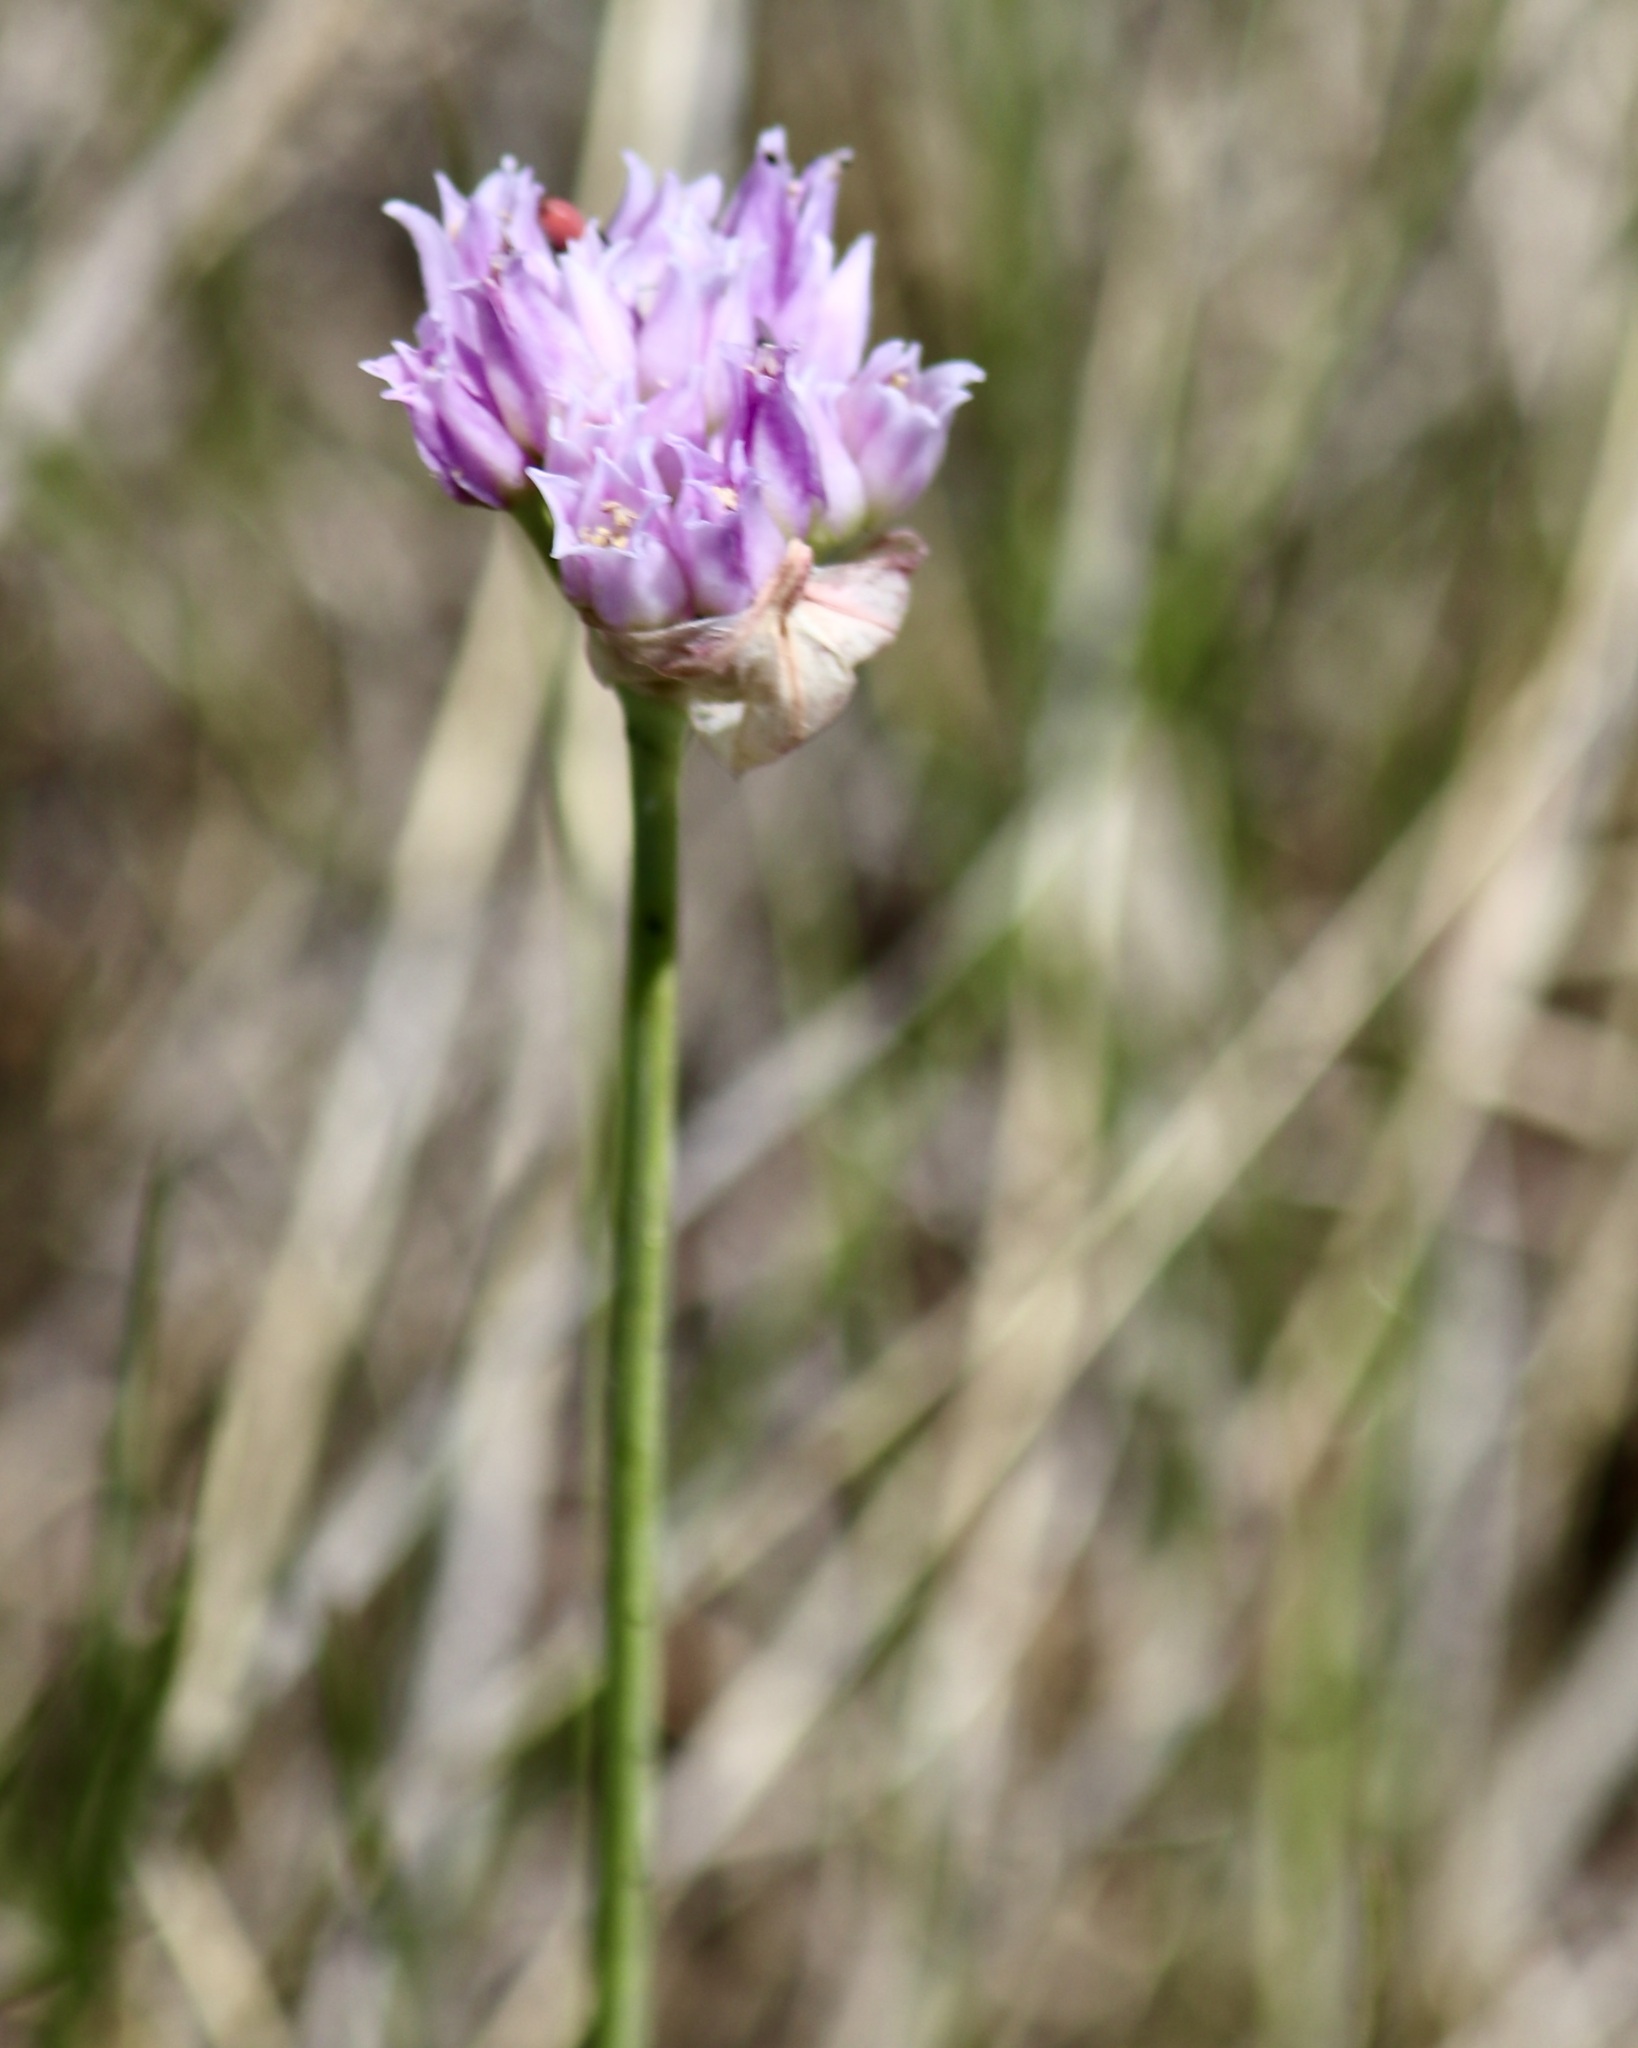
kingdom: Plantae
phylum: Tracheophyta
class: Liliopsida
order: Asparagales
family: Amaryllidaceae
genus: Allium
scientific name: Allium geyeri
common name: Geyer's onion
